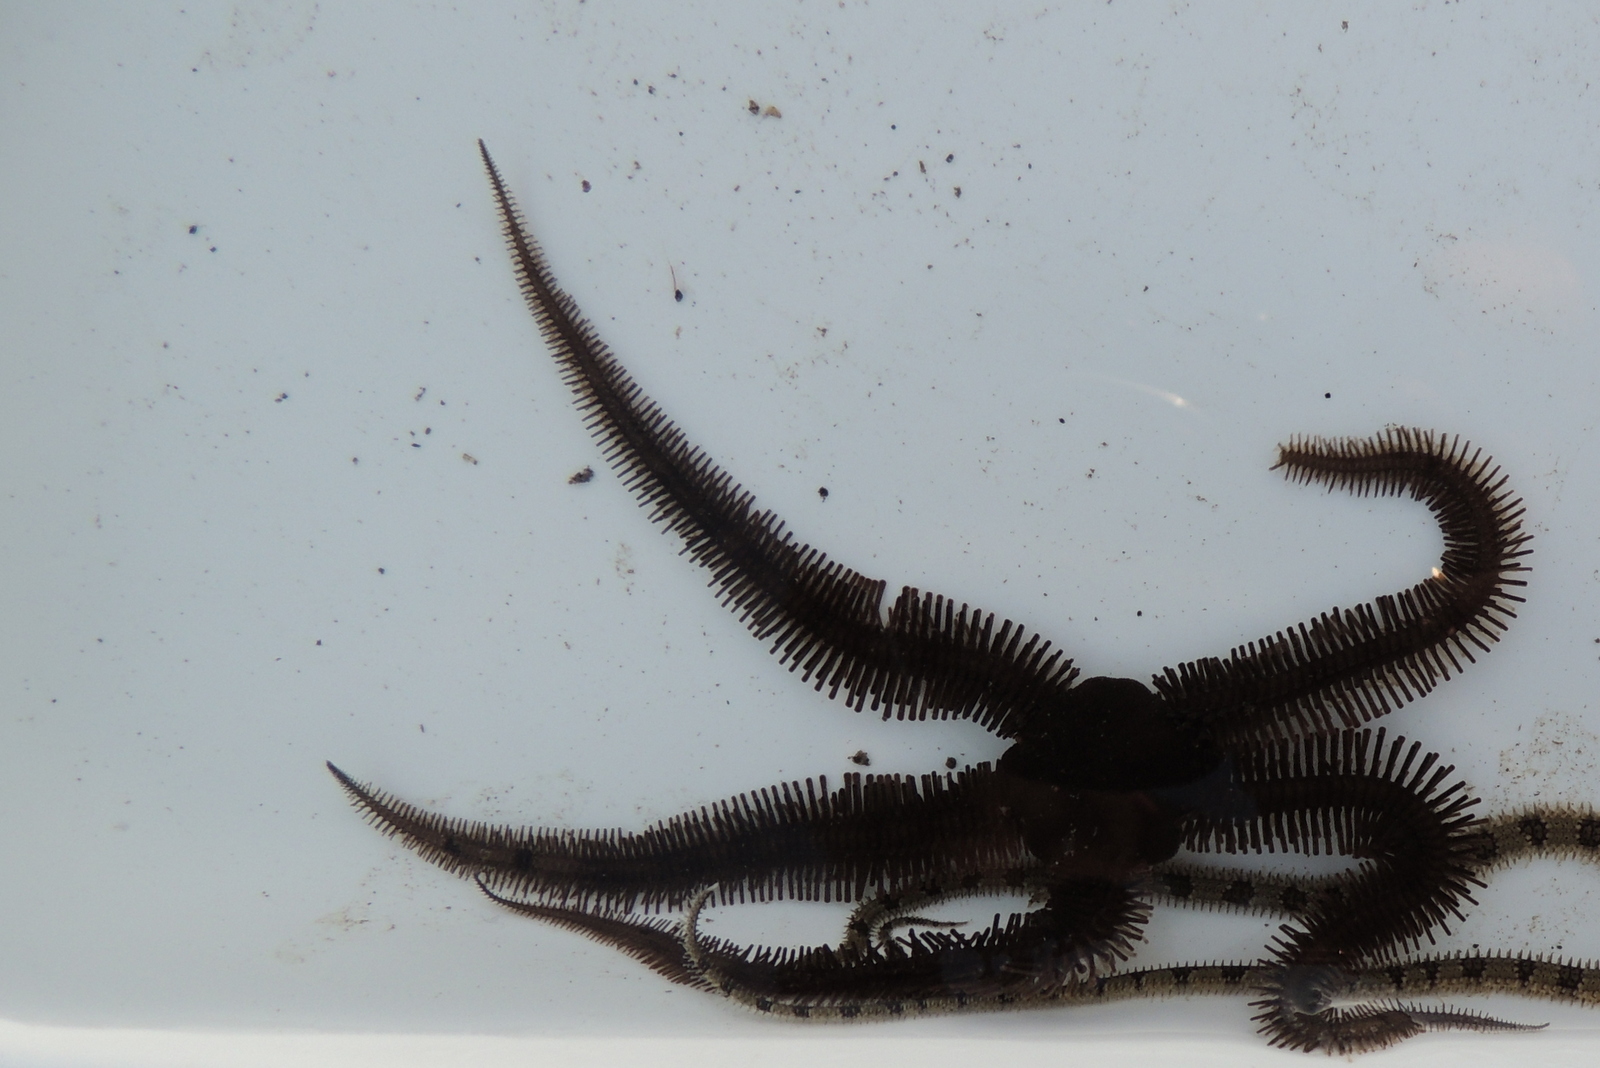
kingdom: Animalia
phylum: Echinodermata
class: Ophiuroidea
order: Ophiacanthida
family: Ophiopteridae
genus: Ophiopteris
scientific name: Ophiopteris papillosa
